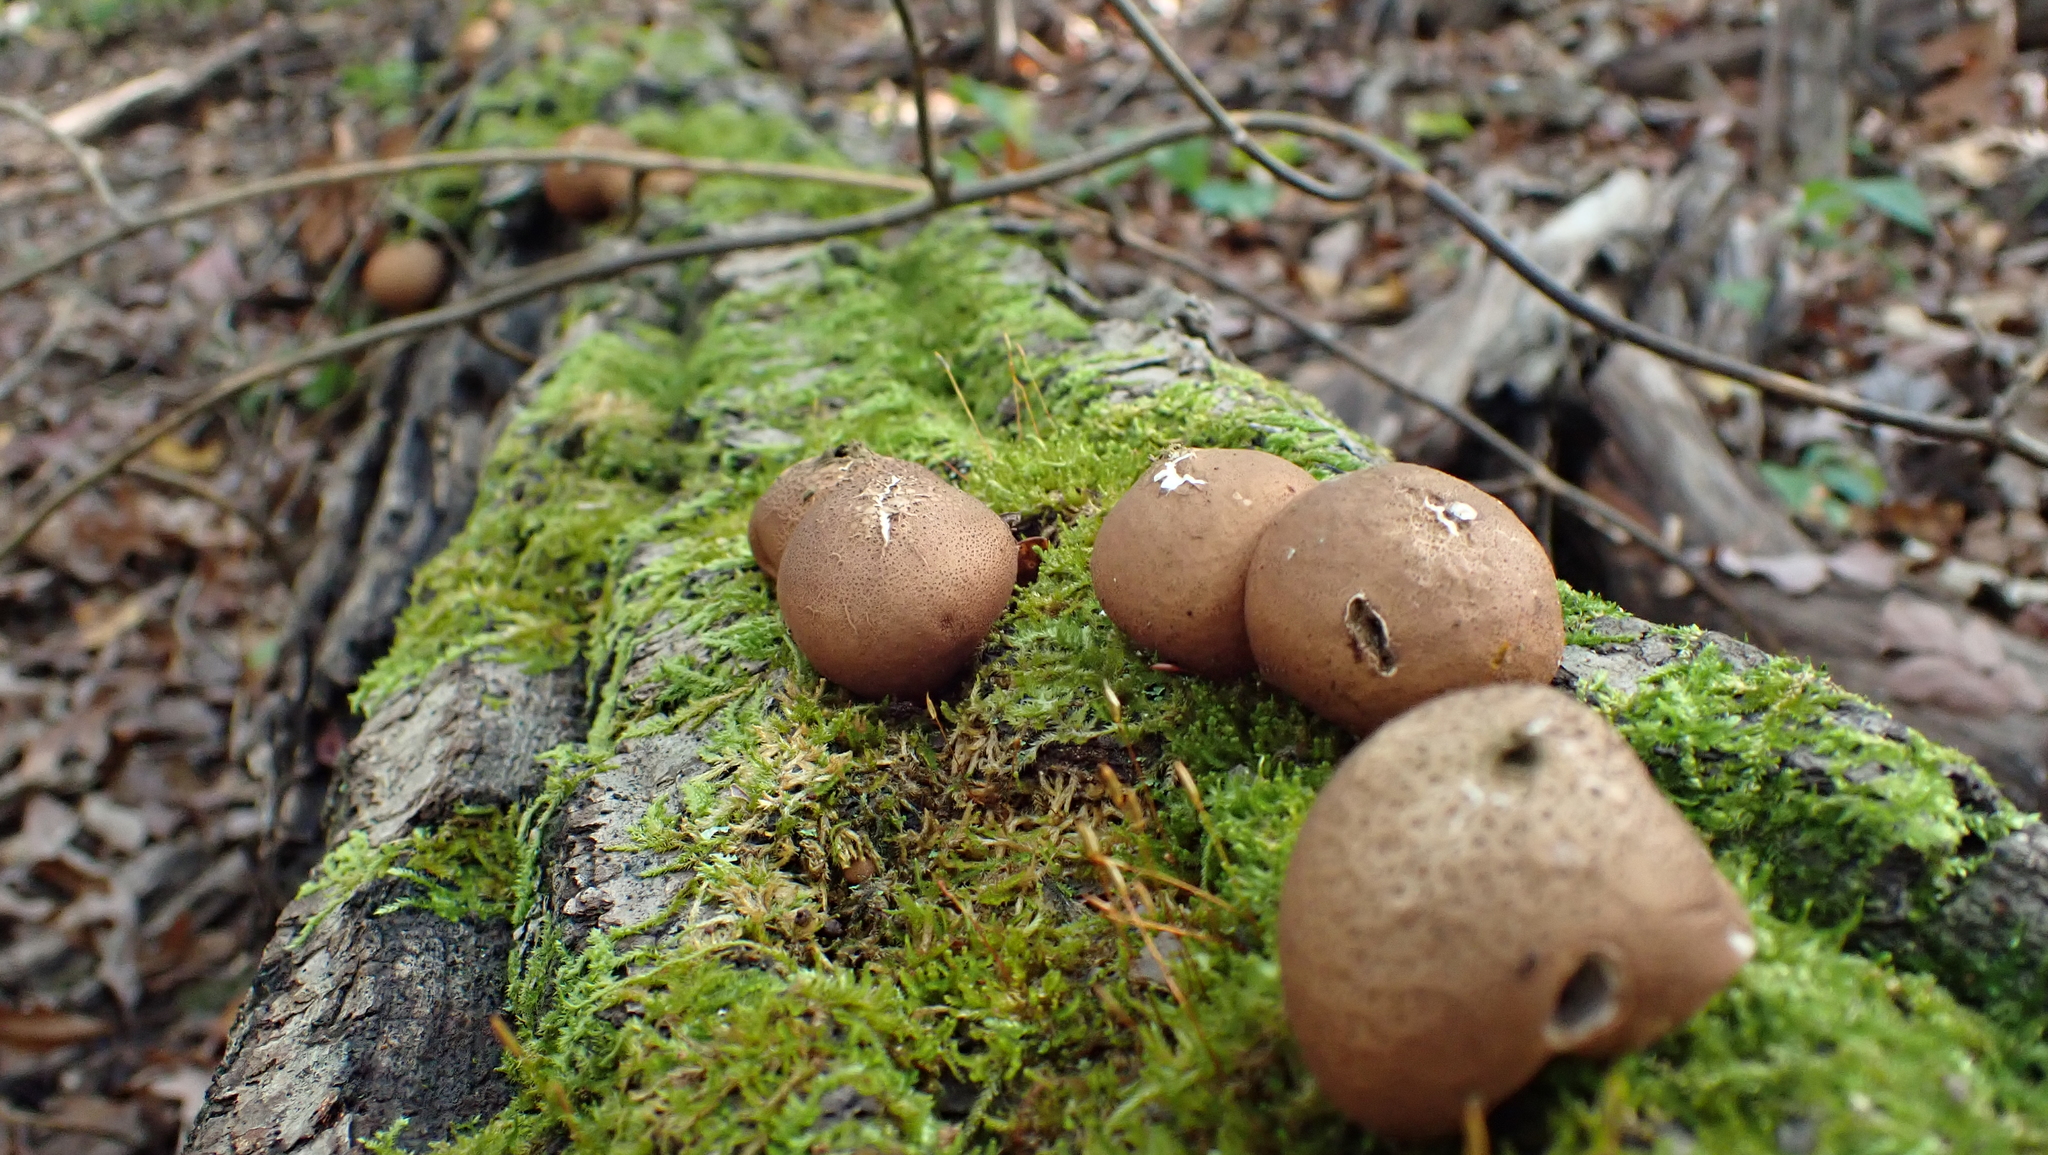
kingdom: Fungi
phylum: Basidiomycota
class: Agaricomycetes
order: Agaricales
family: Lycoperdaceae
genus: Apioperdon
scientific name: Apioperdon pyriforme
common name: Pear-shaped puffball
